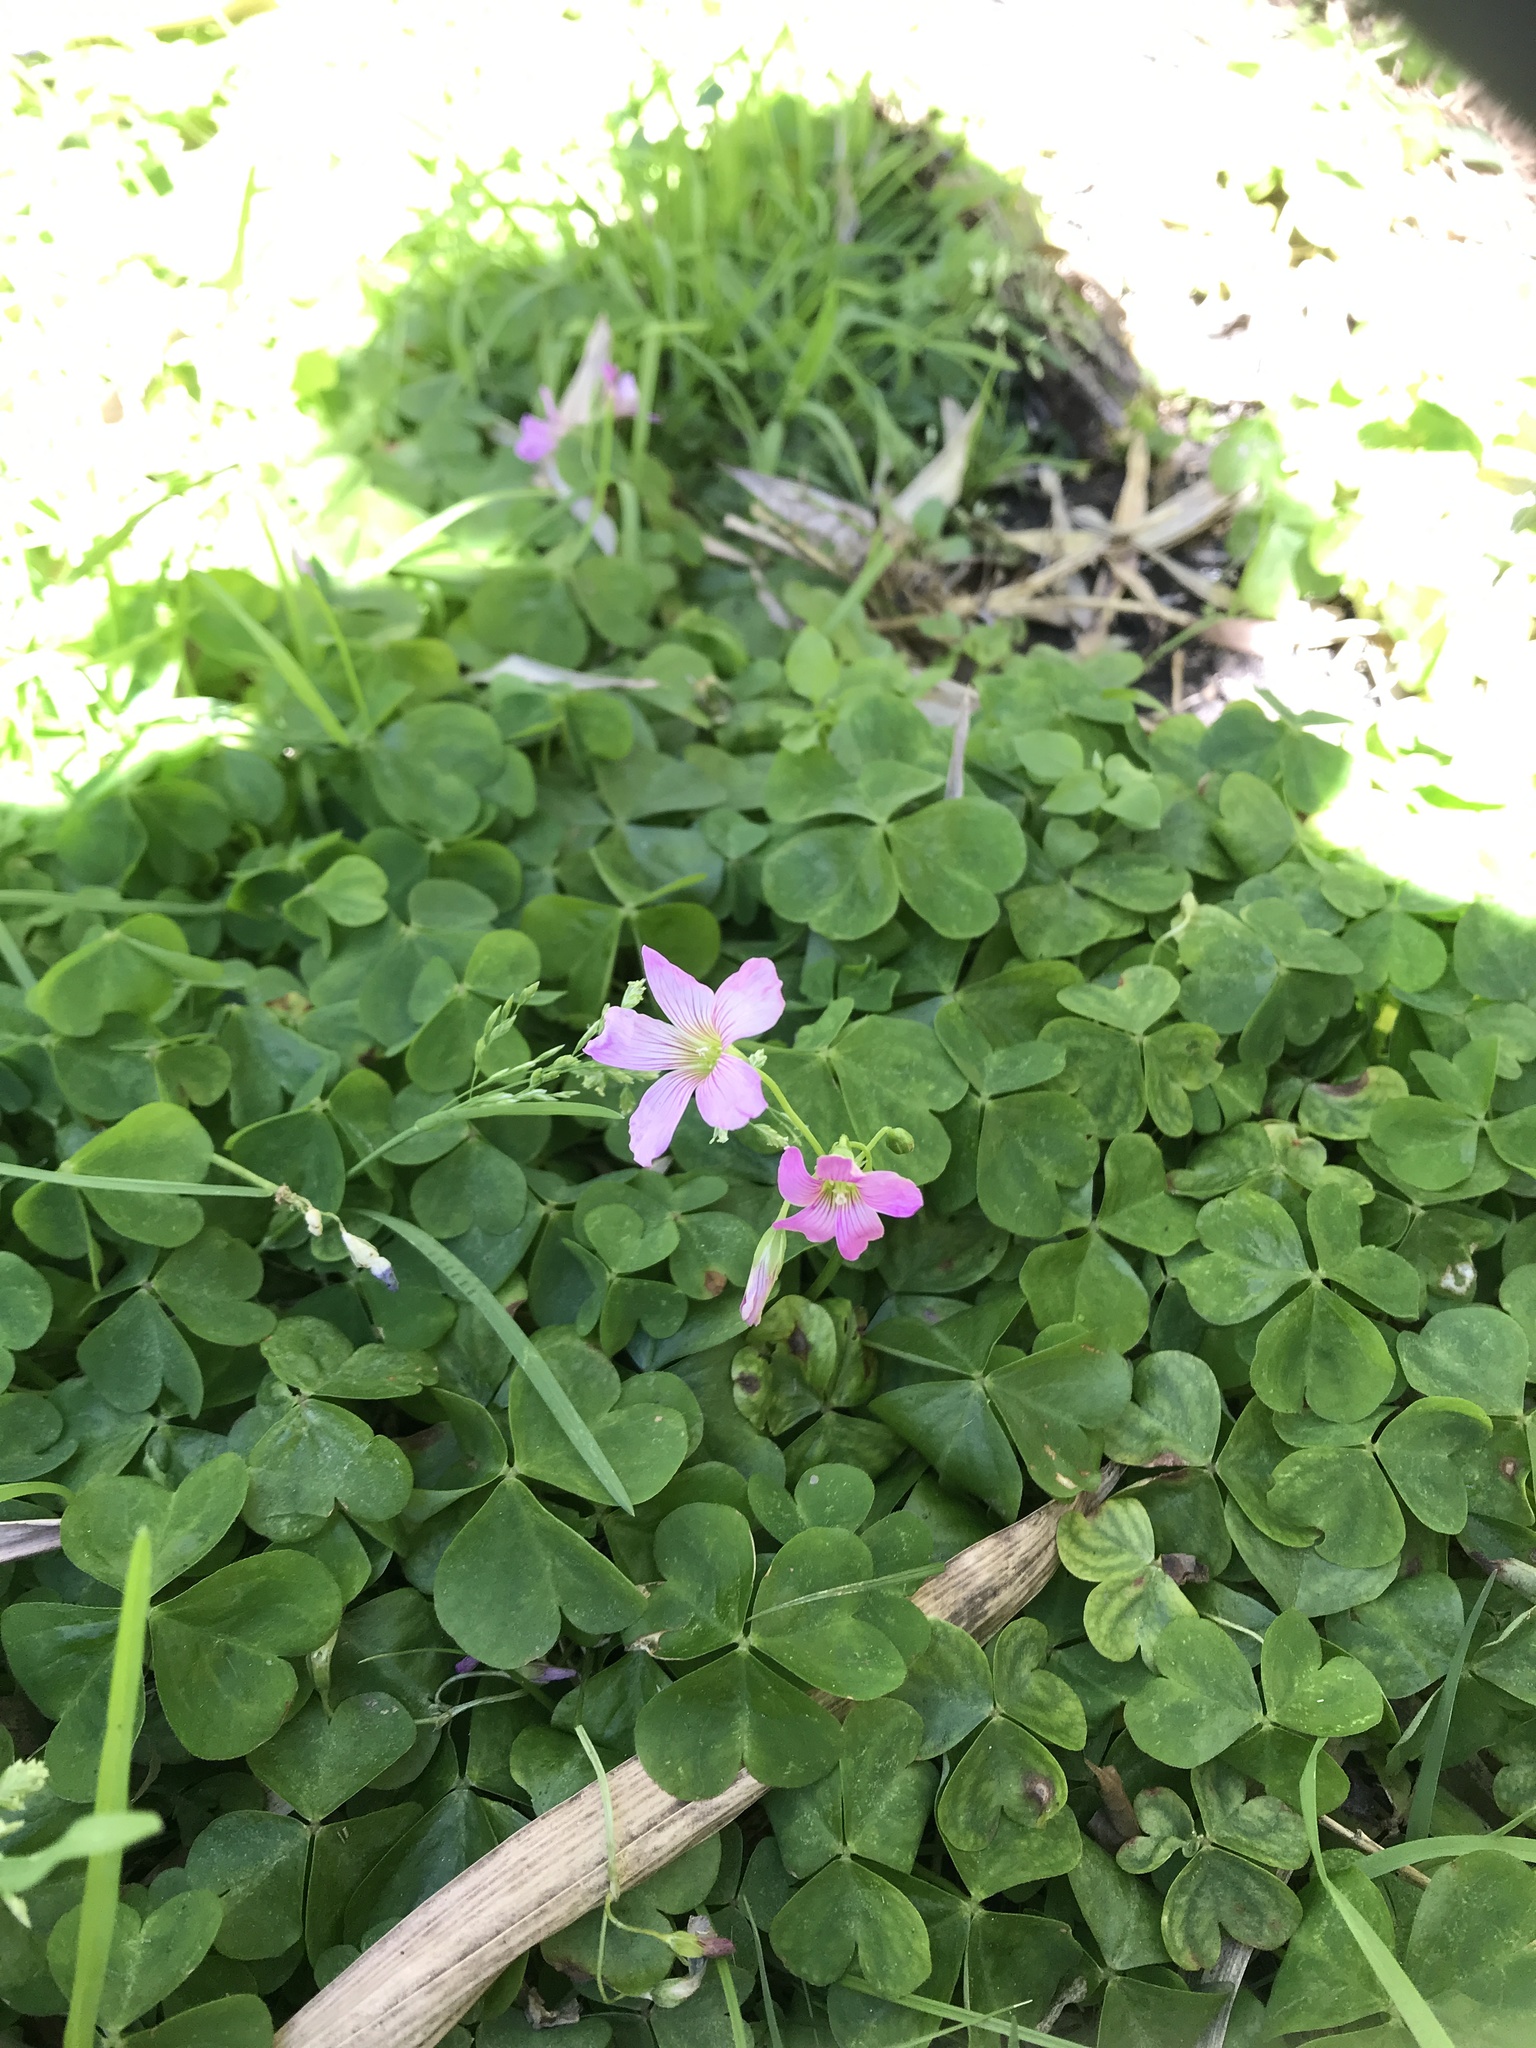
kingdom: Plantae
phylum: Tracheophyta
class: Magnoliopsida
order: Oxalidales
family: Oxalidaceae
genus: Oxalis
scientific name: Oxalis debilis
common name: Large-flowered pink-sorrel
